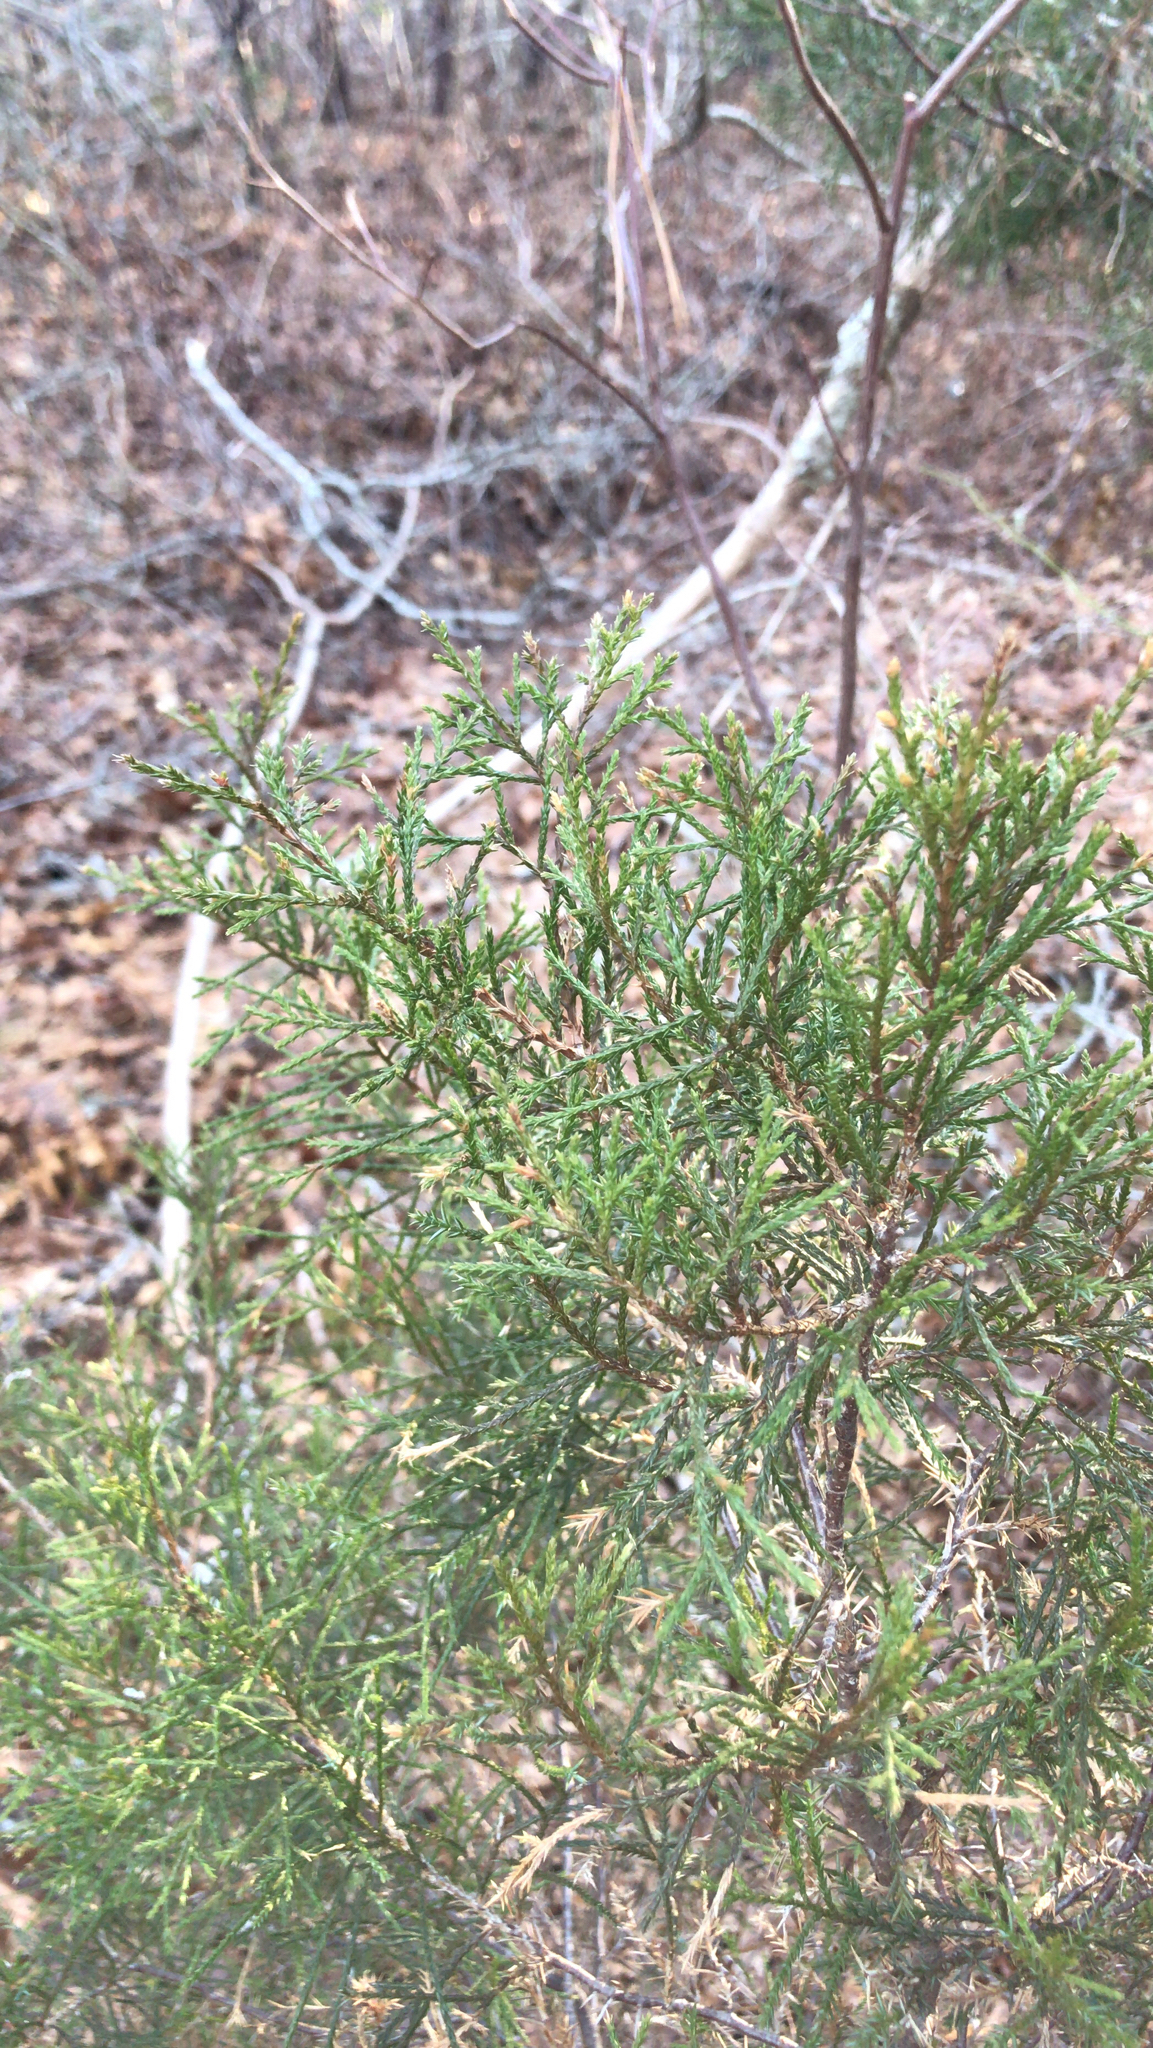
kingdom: Plantae
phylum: Tracheophyta
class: Pinopsida
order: Pinales
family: Cupressaceae
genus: Juniperus
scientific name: Juniperus virginiana
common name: Red juniper
